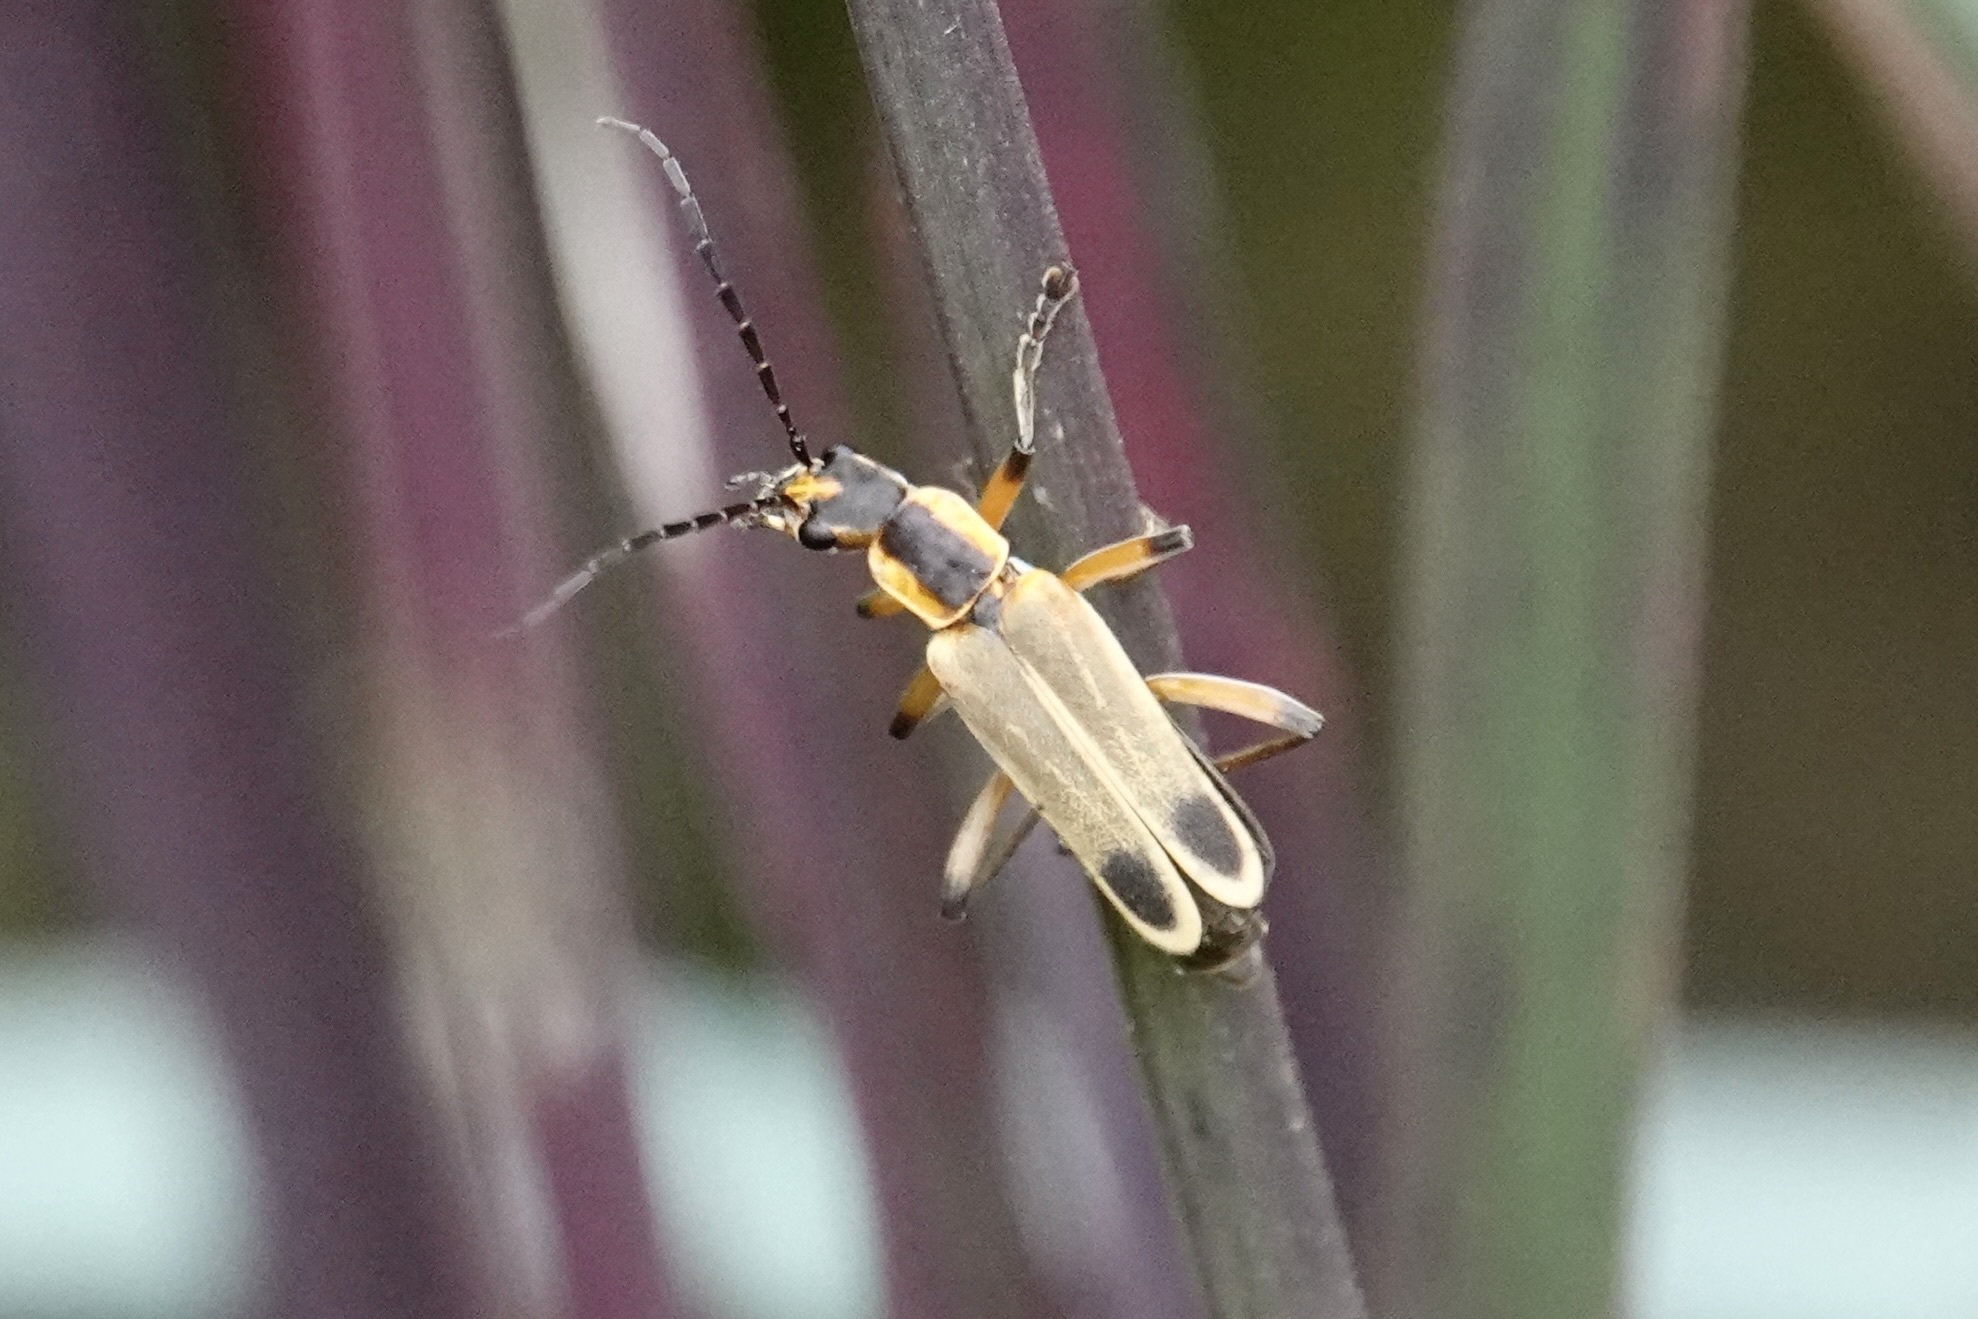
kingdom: Animalia
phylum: Arthropoda
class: Insecta
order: Coleoptera
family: Cantharidae
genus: Chauliognathus
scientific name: Chauliognathus marginatus
